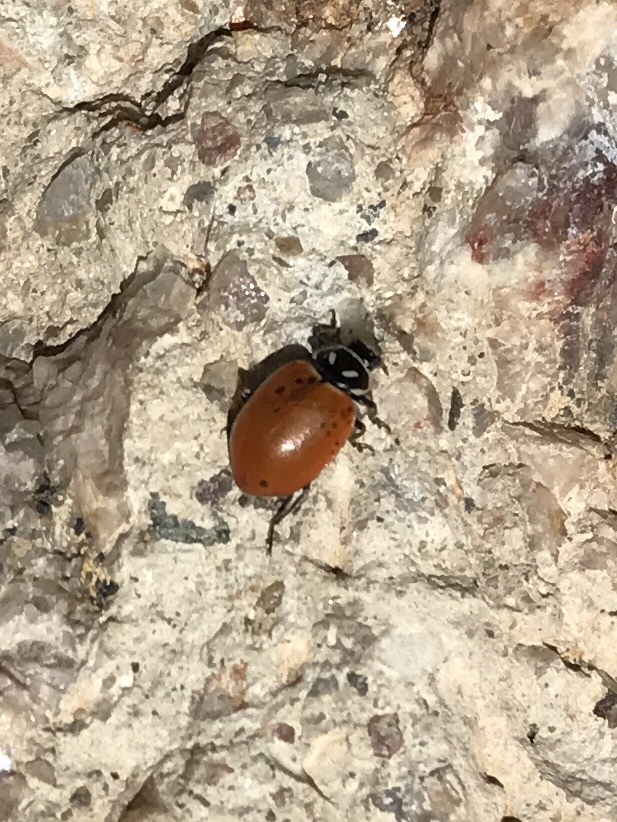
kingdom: Animalia
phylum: Arthropoda
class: Insecta
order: Coleoptera
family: Coccinellidae
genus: Hippodamia
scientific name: Hippodamia convergens
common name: Convergent lady beetle
